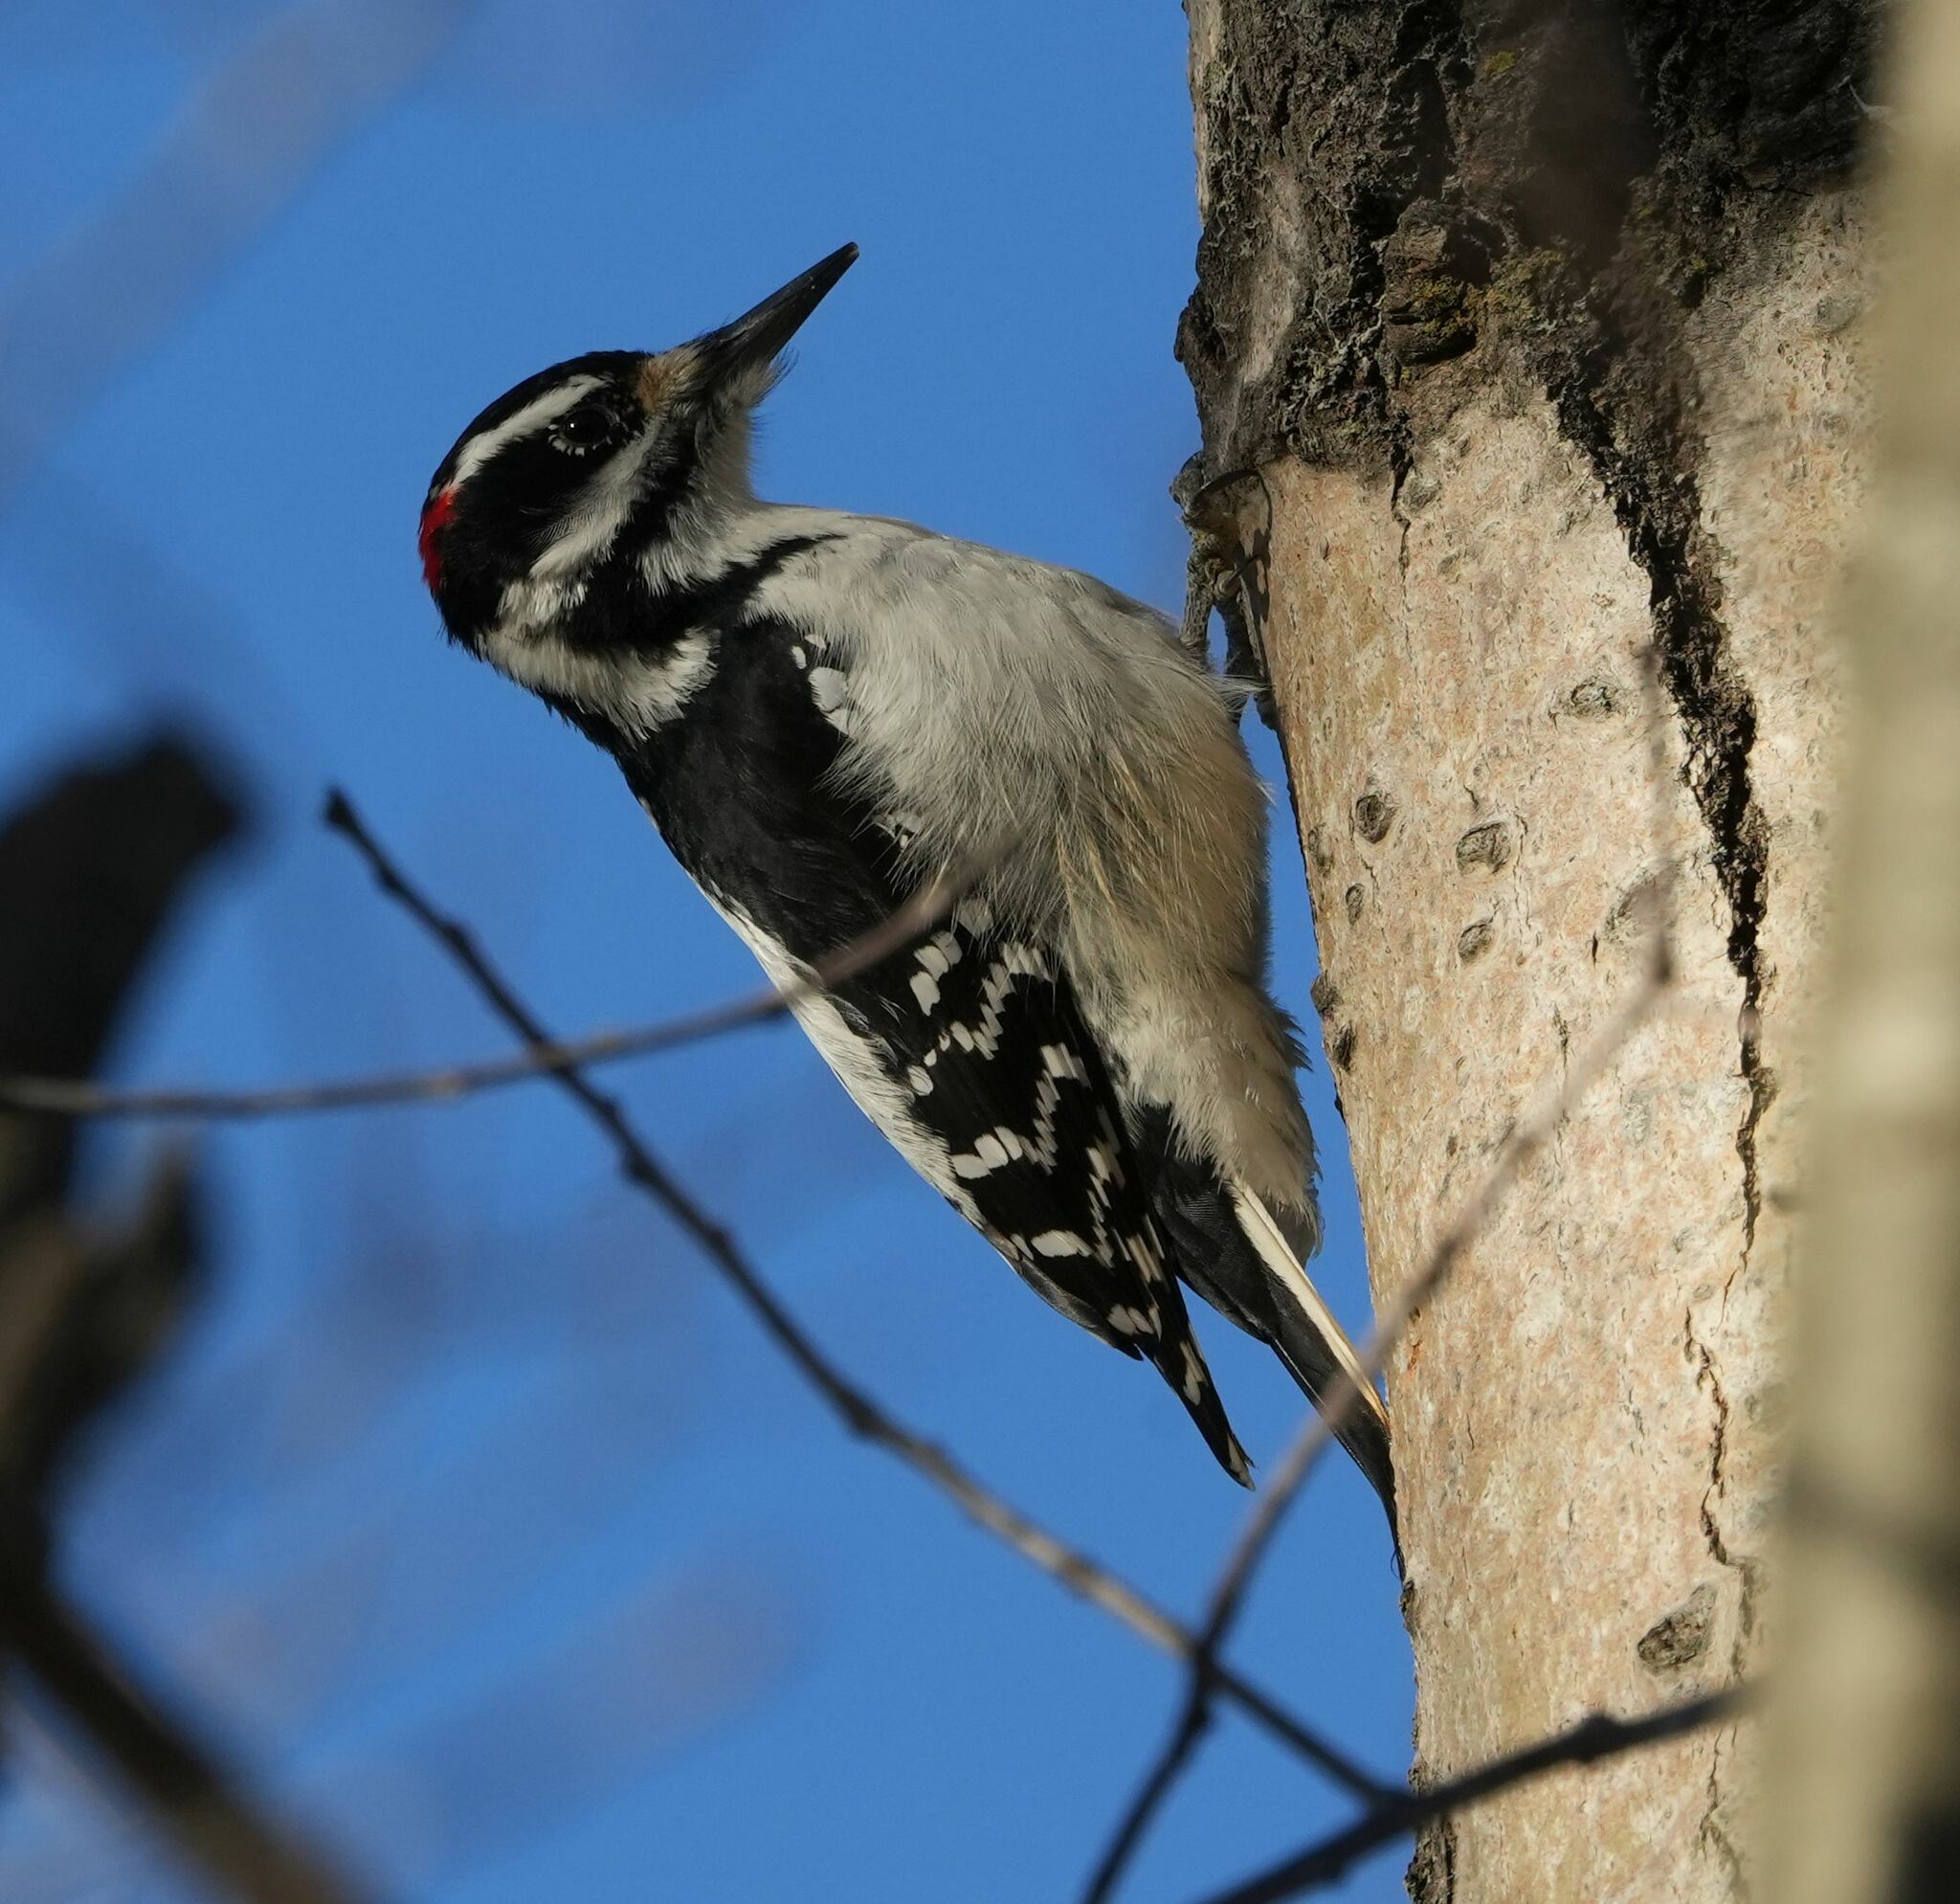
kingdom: Animalia
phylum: Chordata
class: Aves
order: Piciformes
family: Picidae
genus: Leuconotopicus
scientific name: Leuconotopicus villosus
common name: Hairy woodpecker
